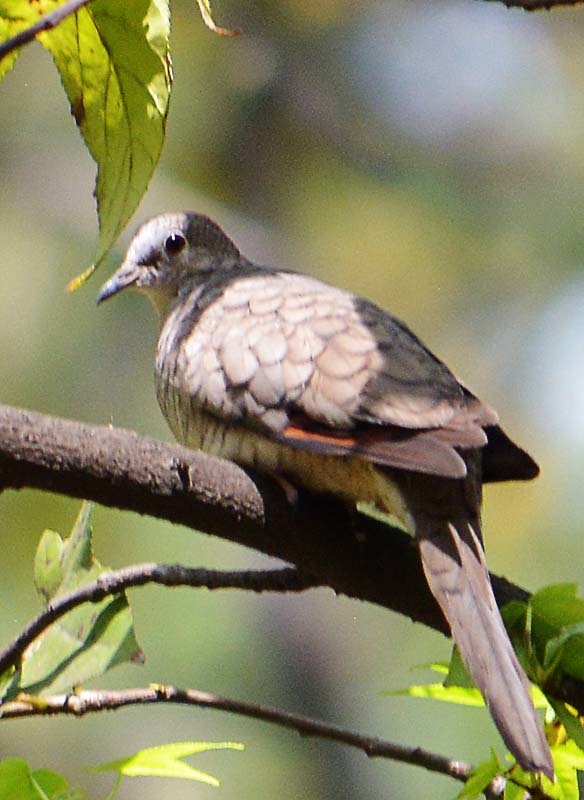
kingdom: Animalia
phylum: Chordata
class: Aves
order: Columbiformes
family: Columbidae
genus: Columbina
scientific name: Columbina inca
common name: Inca dove
